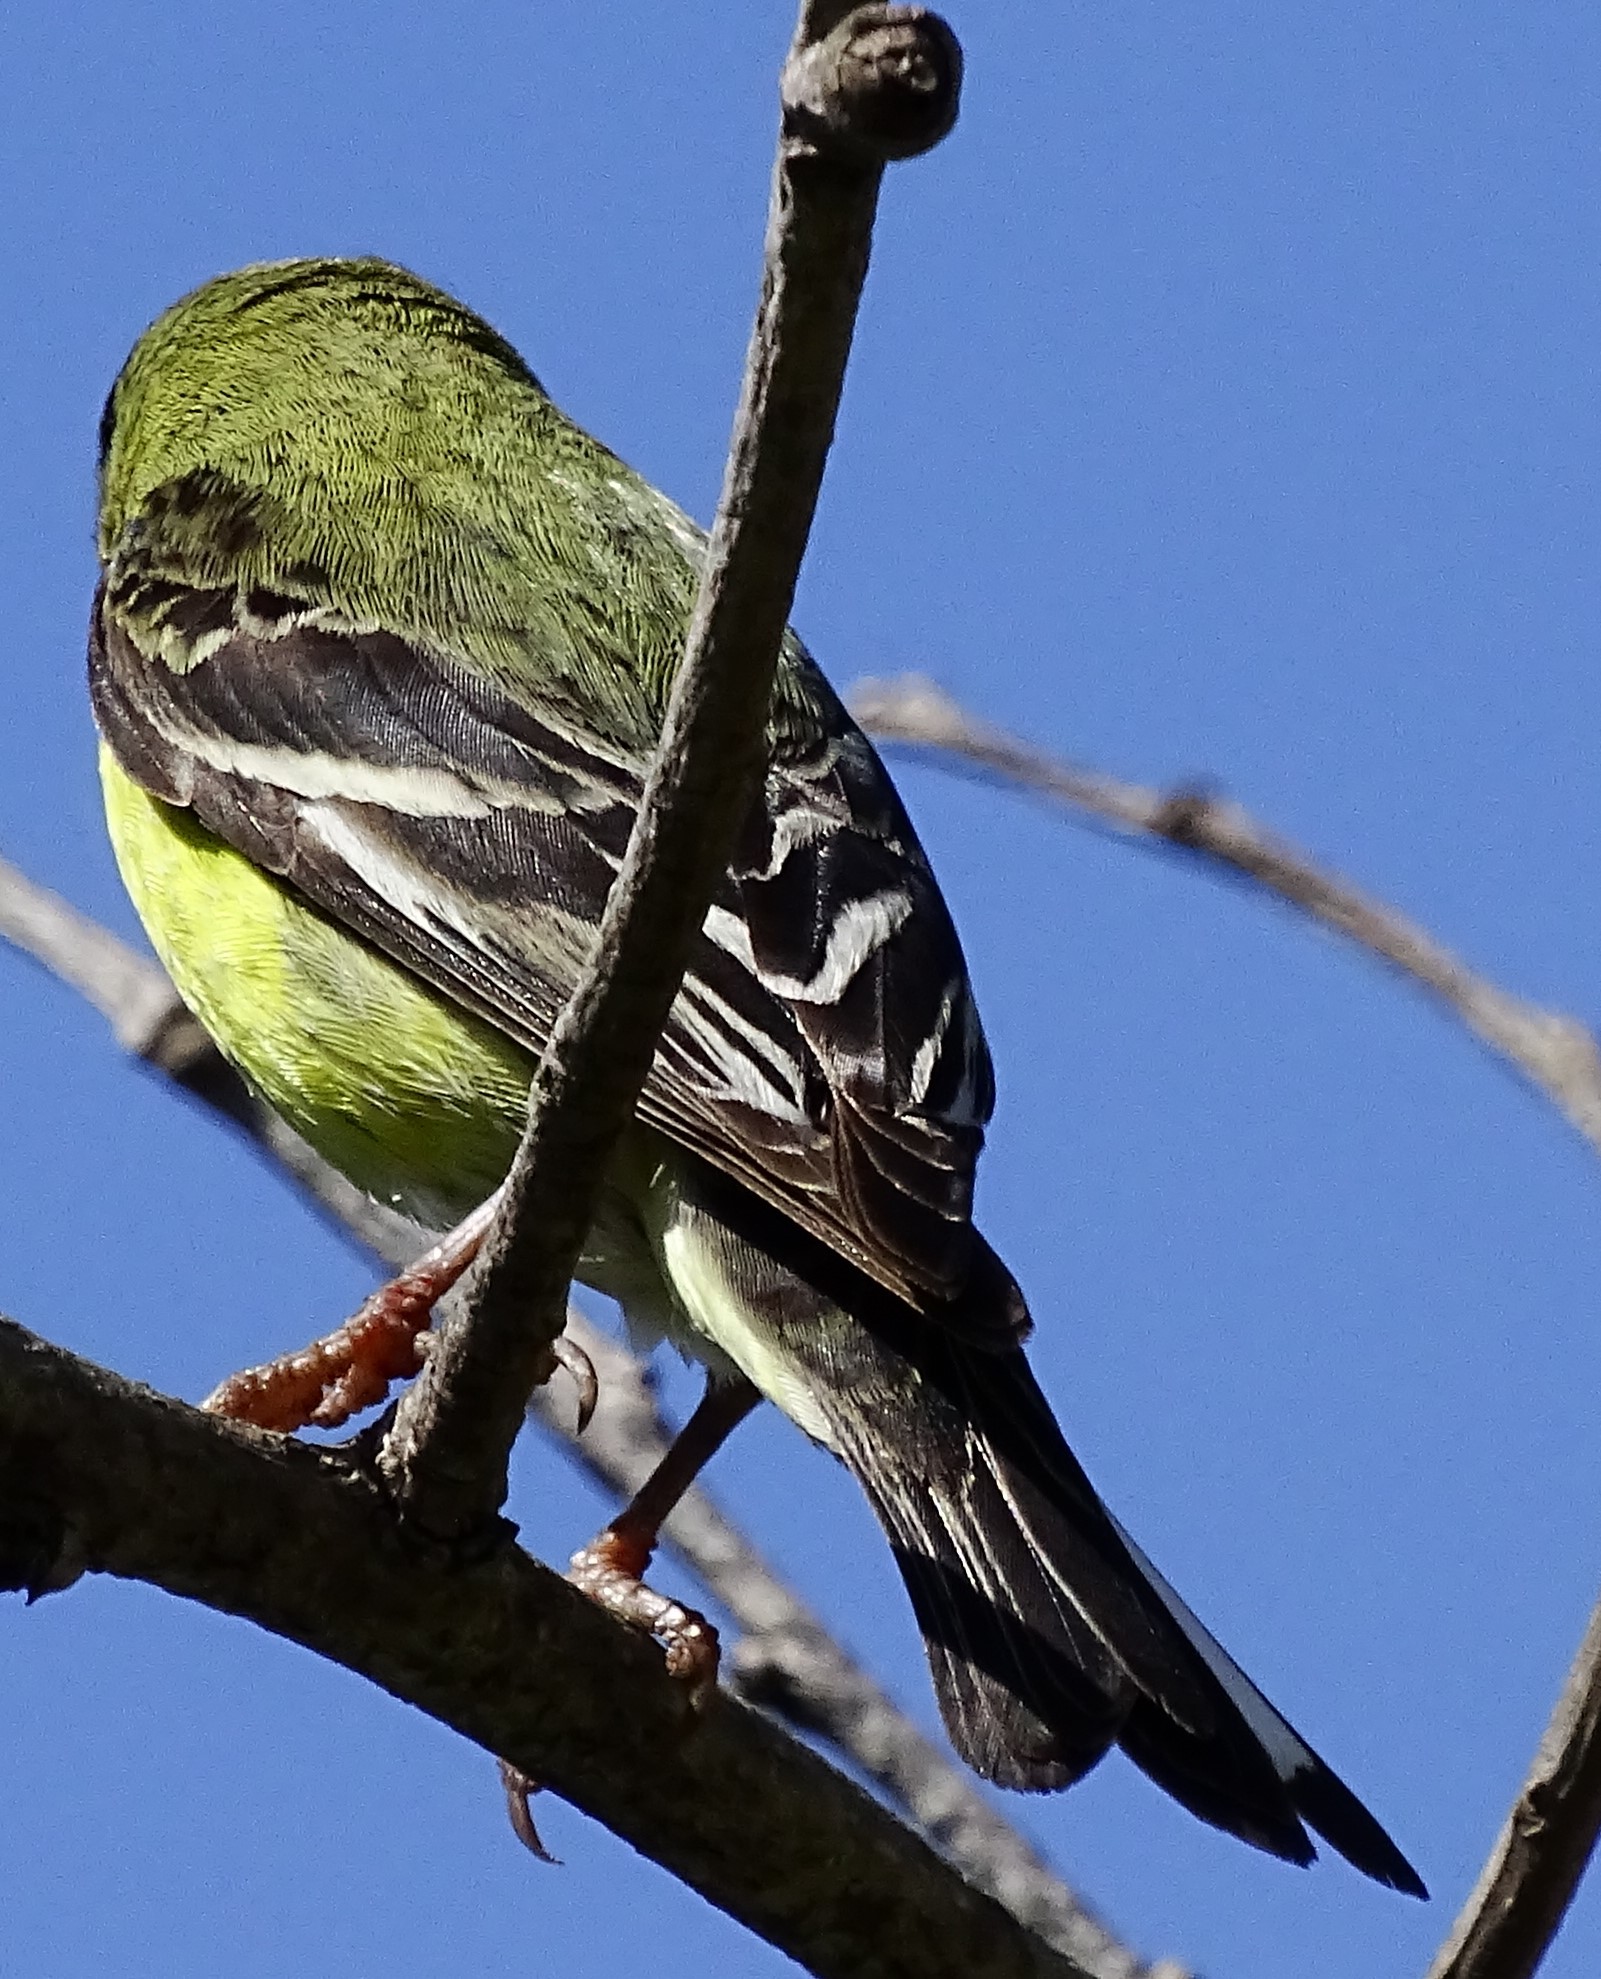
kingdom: Animalia
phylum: Chordata
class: Aves
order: Passeriformes
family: Fringillidae
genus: Spinus
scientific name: Spinus psaltria
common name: Lesser goldfinch
